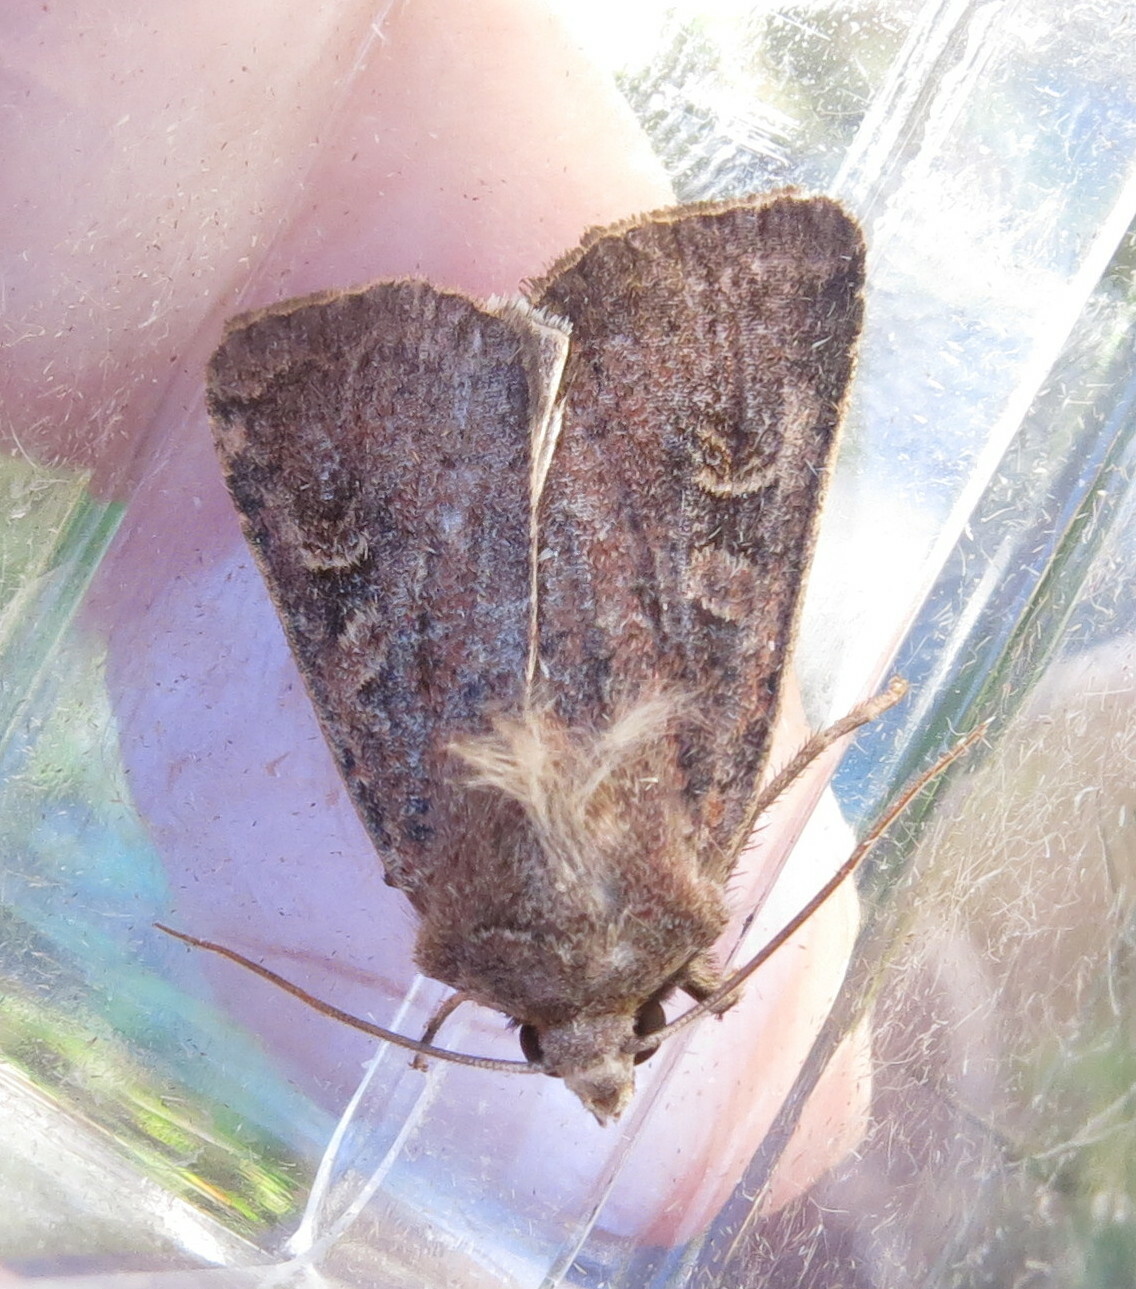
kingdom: Animalia
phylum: Arthropoda
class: Insecta
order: Lepidoptera
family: Noctuidae
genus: Xestia
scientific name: Xestia xanthographa
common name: Square-spot rustic
